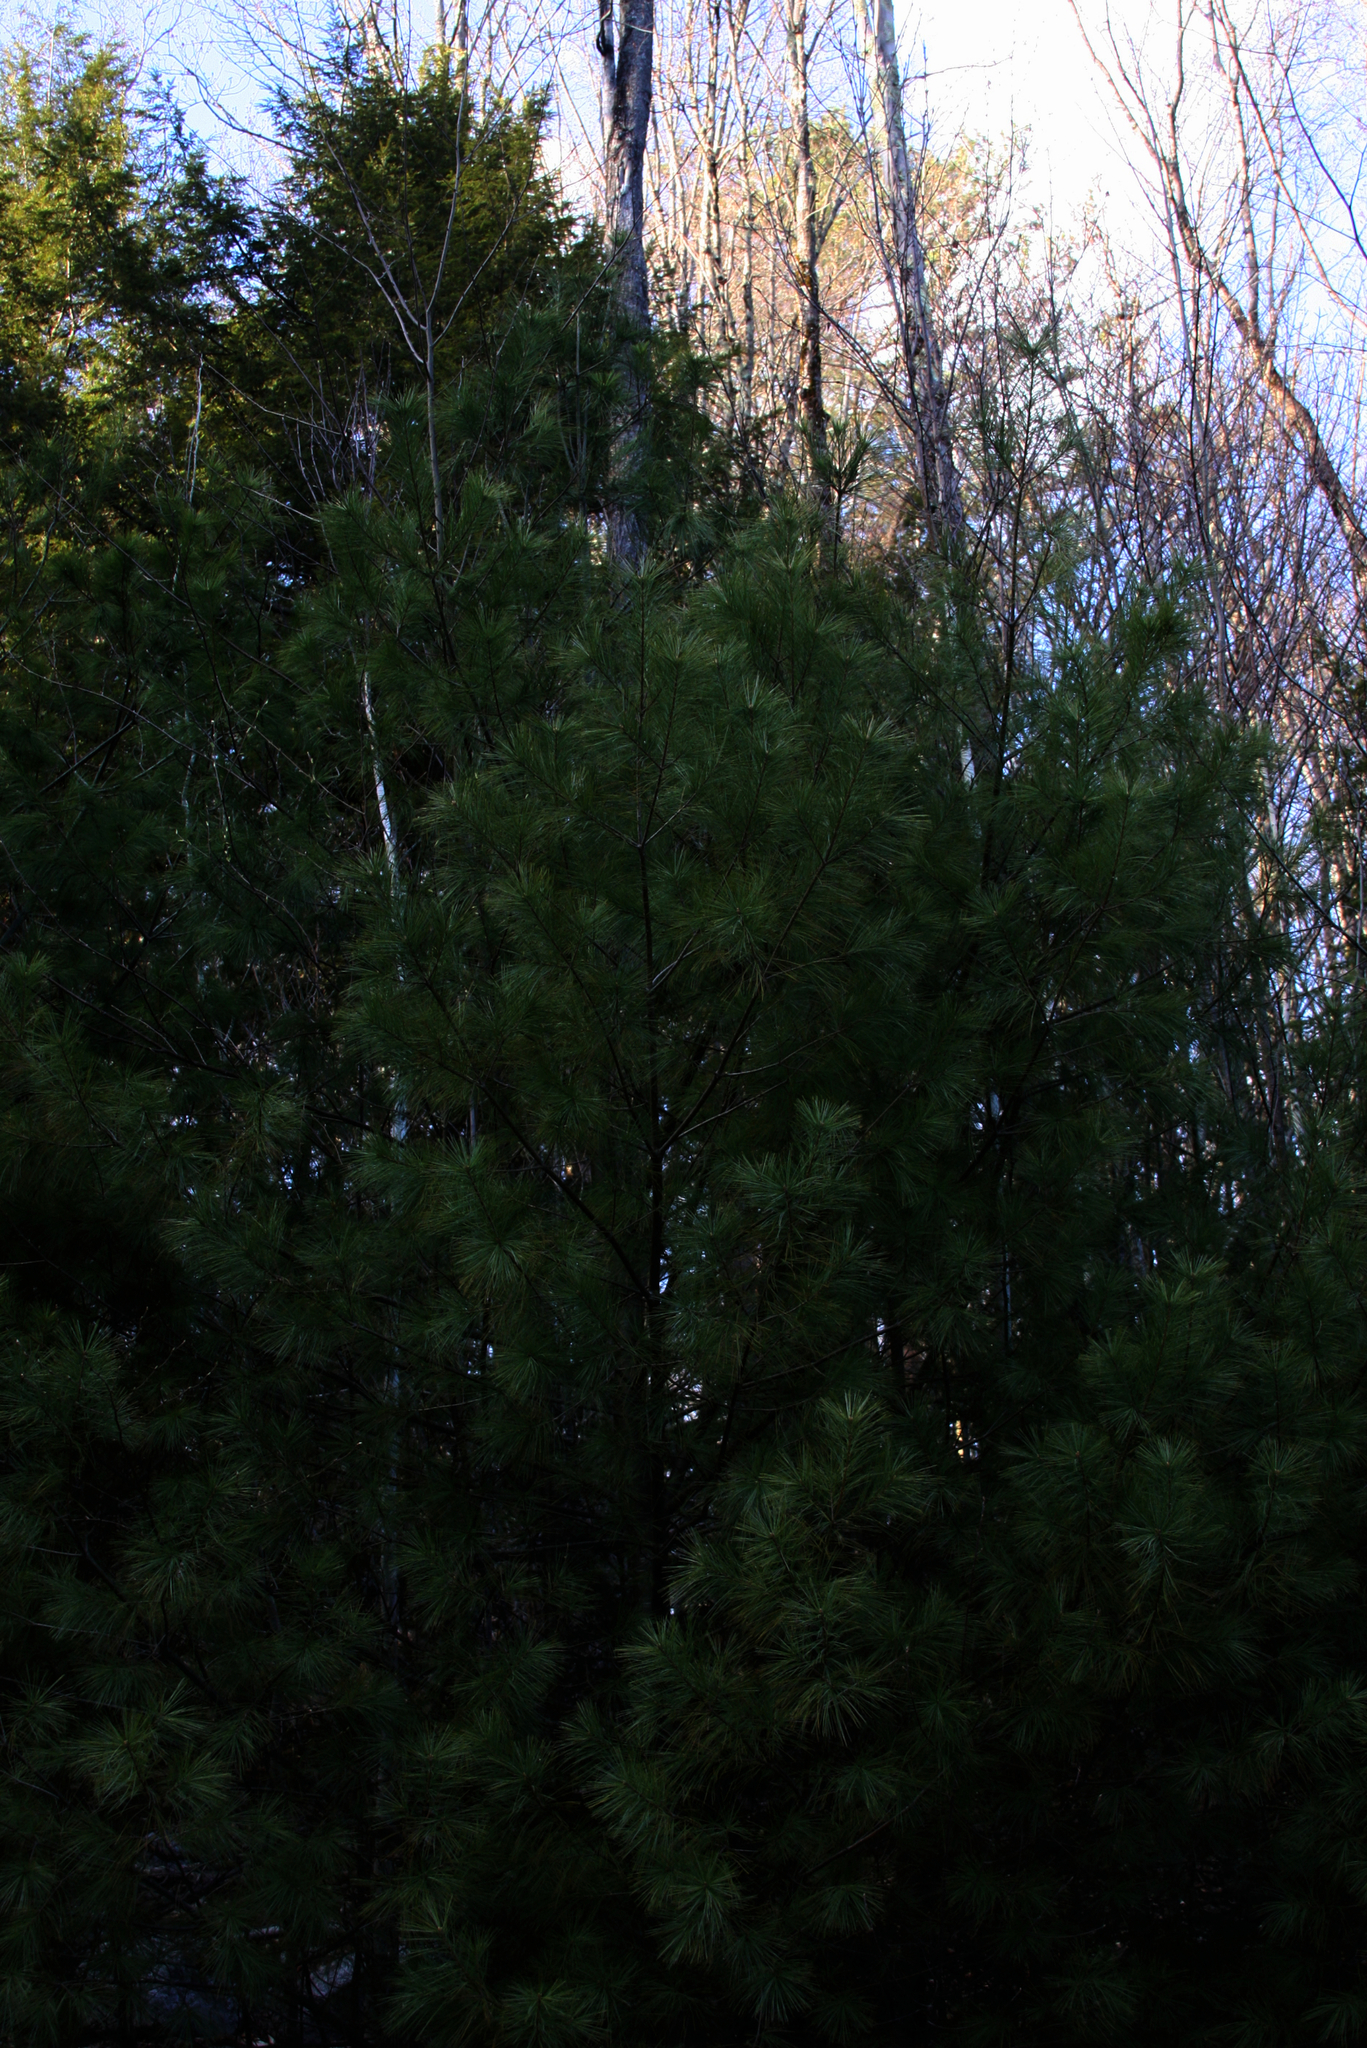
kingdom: Plantae
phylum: Tracheophyta
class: Pinopsida
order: Pinales
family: Pinaceae
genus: Pinus
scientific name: Pinus strobus
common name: Weymouth pine
